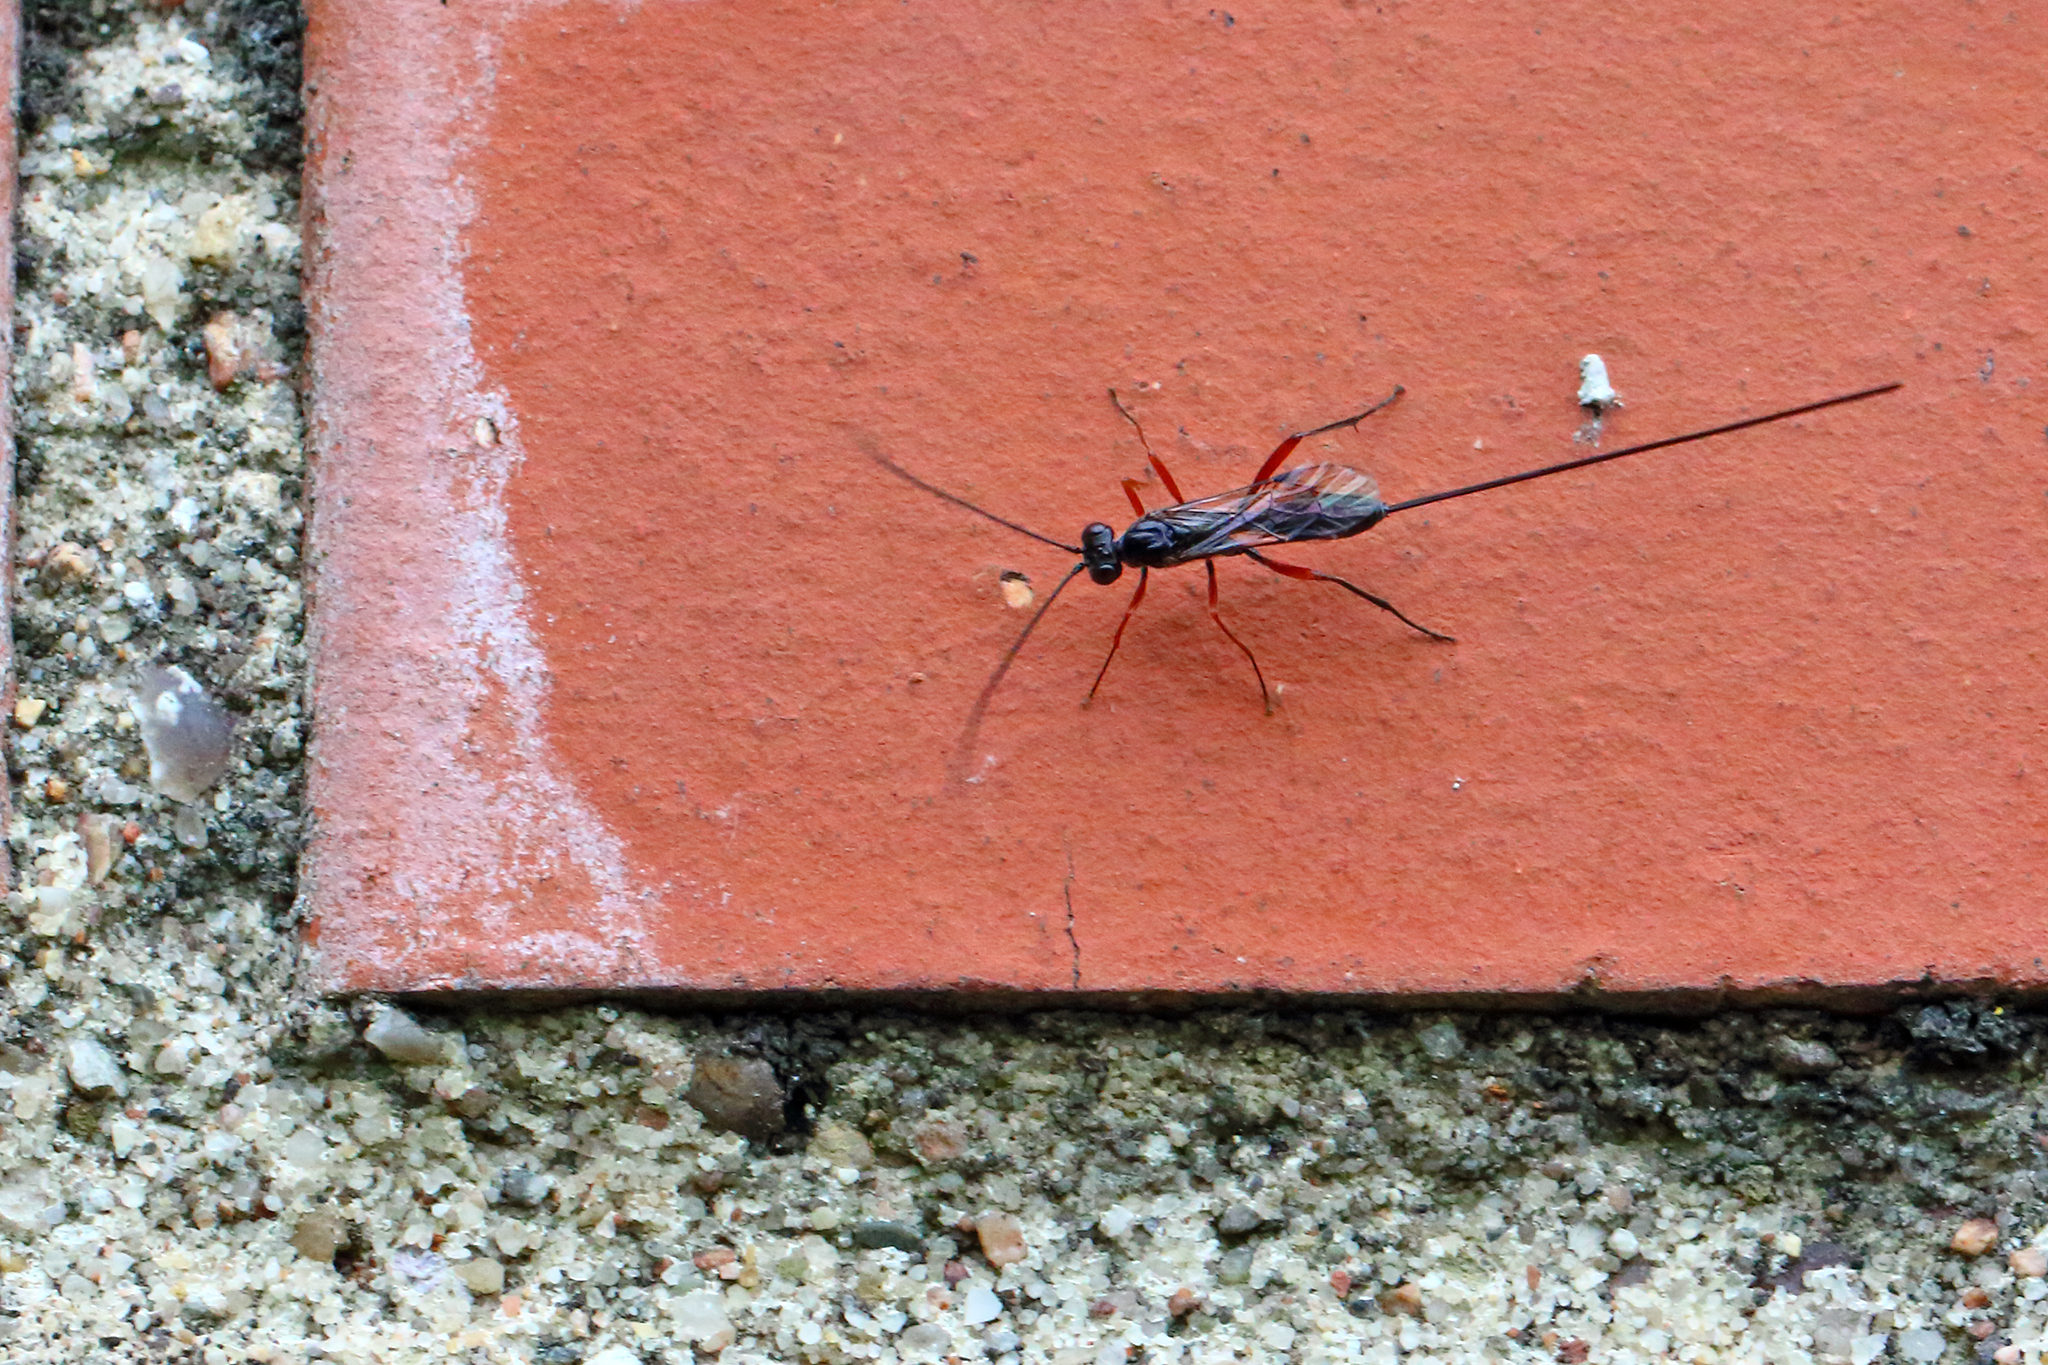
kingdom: Animalia
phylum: Arthropoda
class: Insecta
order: Hymenoptera
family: Ichneumonidae
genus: Stenarella
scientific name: Stenarella domator
